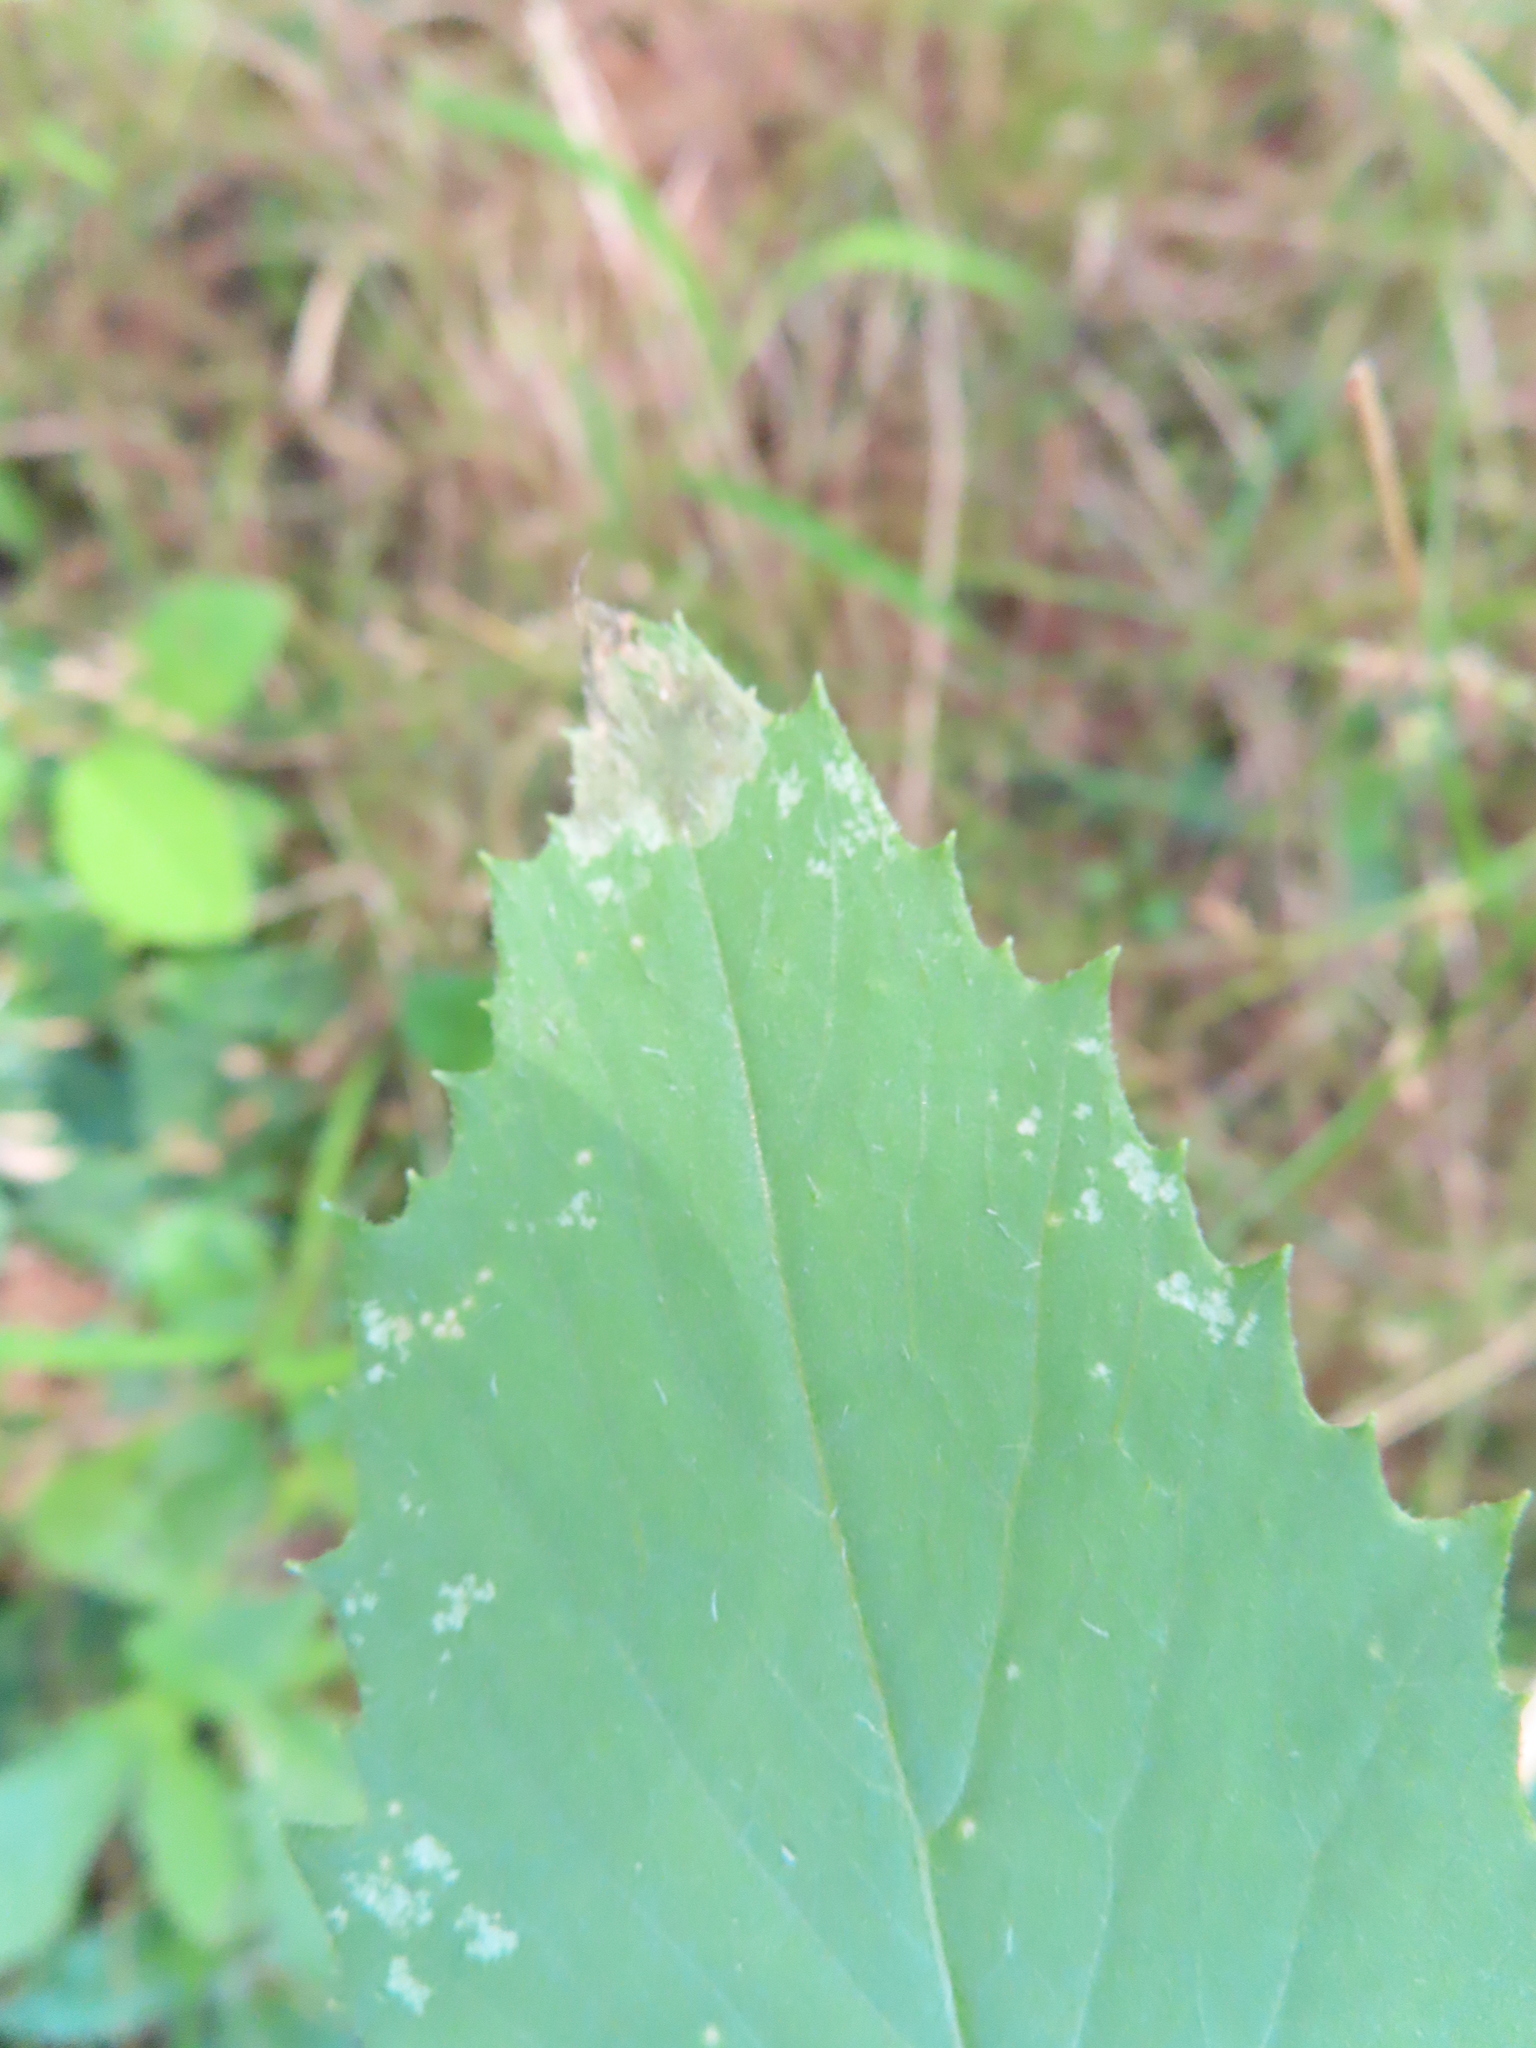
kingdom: Animalia
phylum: Arthropoda
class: Insecta
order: Diptera
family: Agromyzidae
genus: Nemorimyza
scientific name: Nemorimyza maculosa
